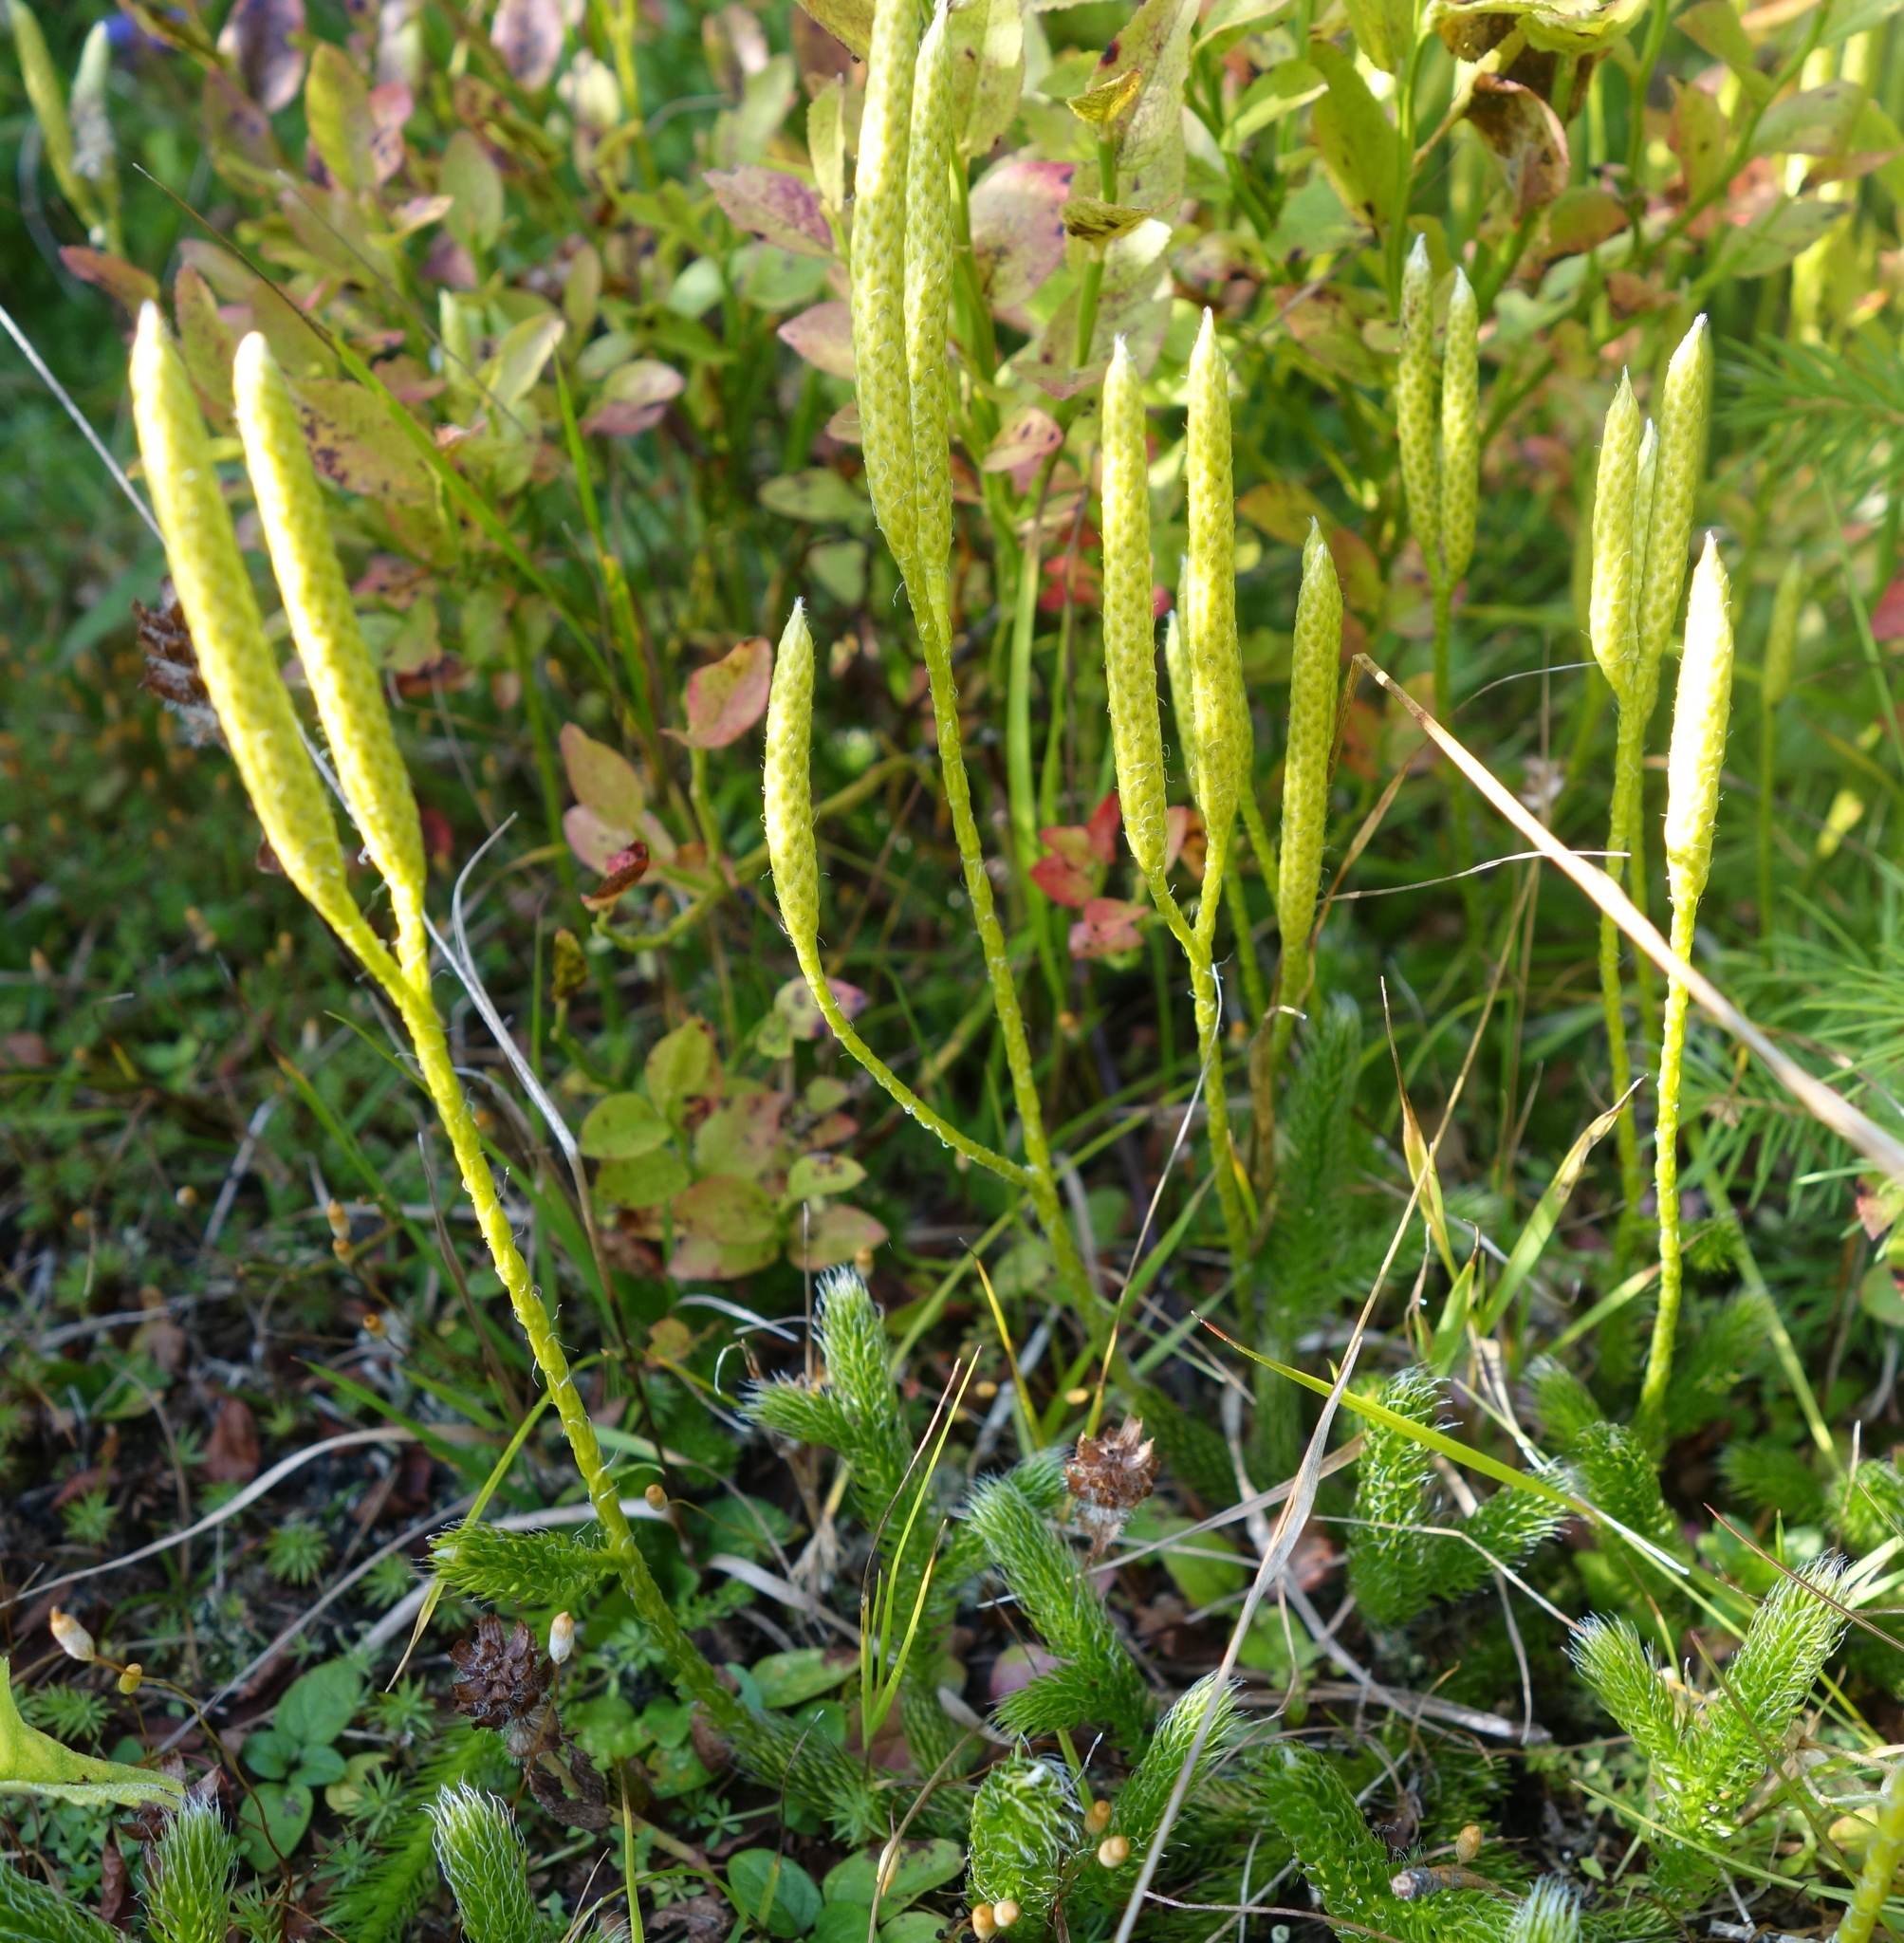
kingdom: Plantae
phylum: Tracheophyta
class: Lycopodiopsida
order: Lycopodiales
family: Lycopodiaceae
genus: Lycopodium
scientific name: Lycopodium clavatum
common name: Stag's-horn clubmoss
